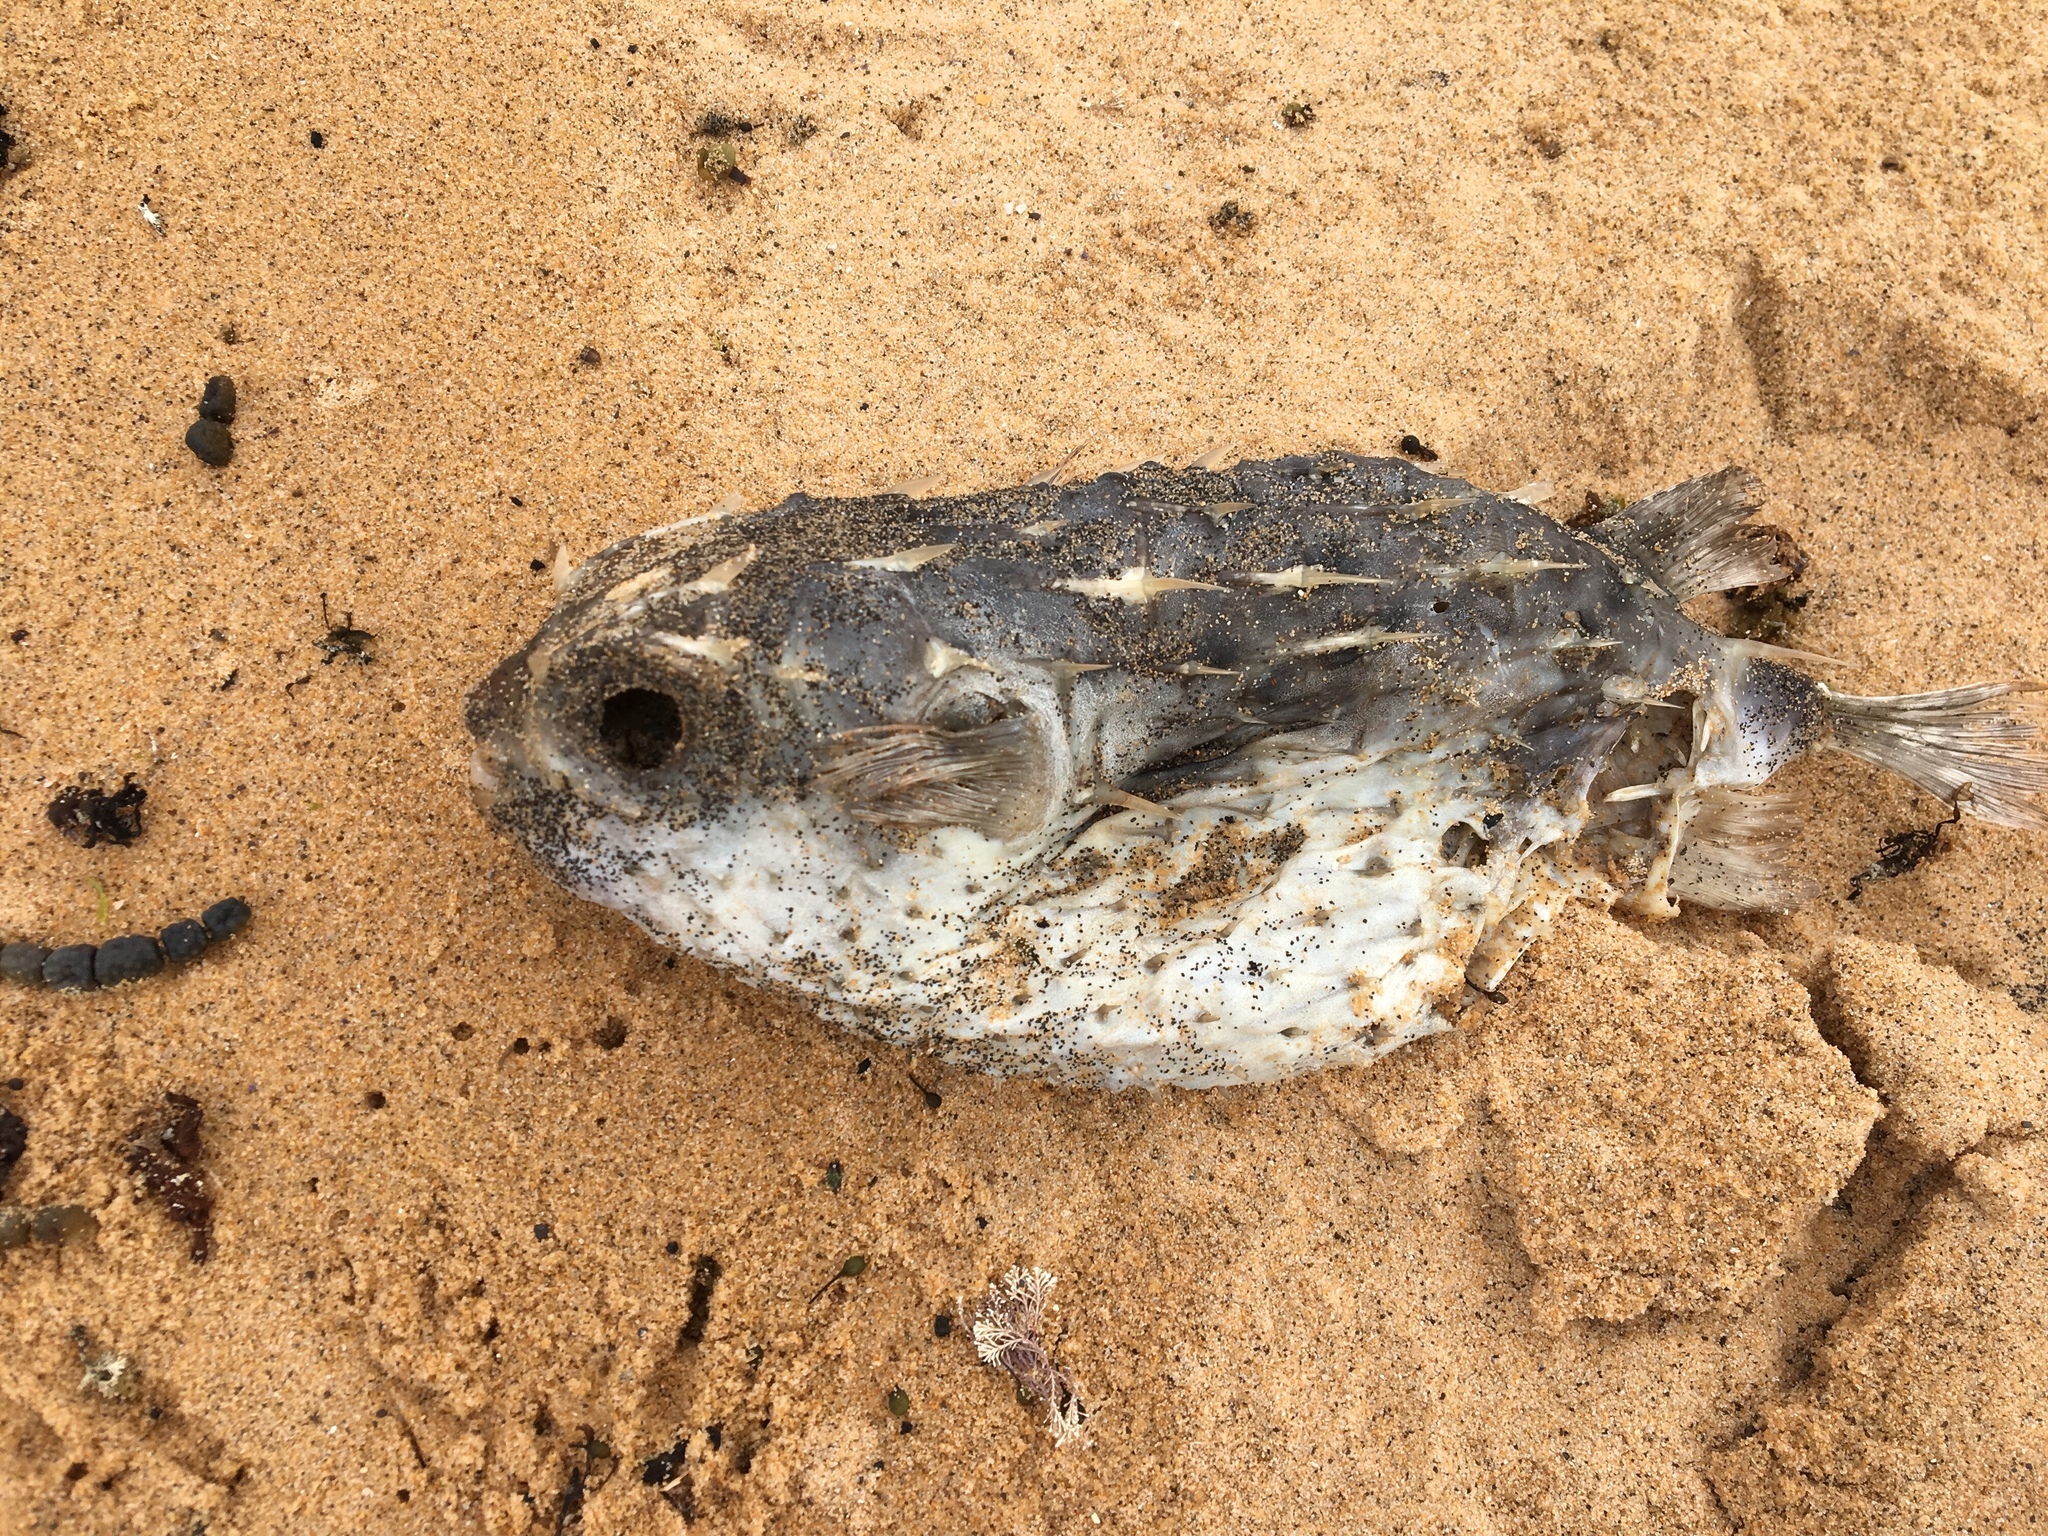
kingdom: Animalia
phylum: Chordata
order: Tetraodontiformes
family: Diodontidae
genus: Allomycterus
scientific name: Allomycterus pilatus
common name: No common name
